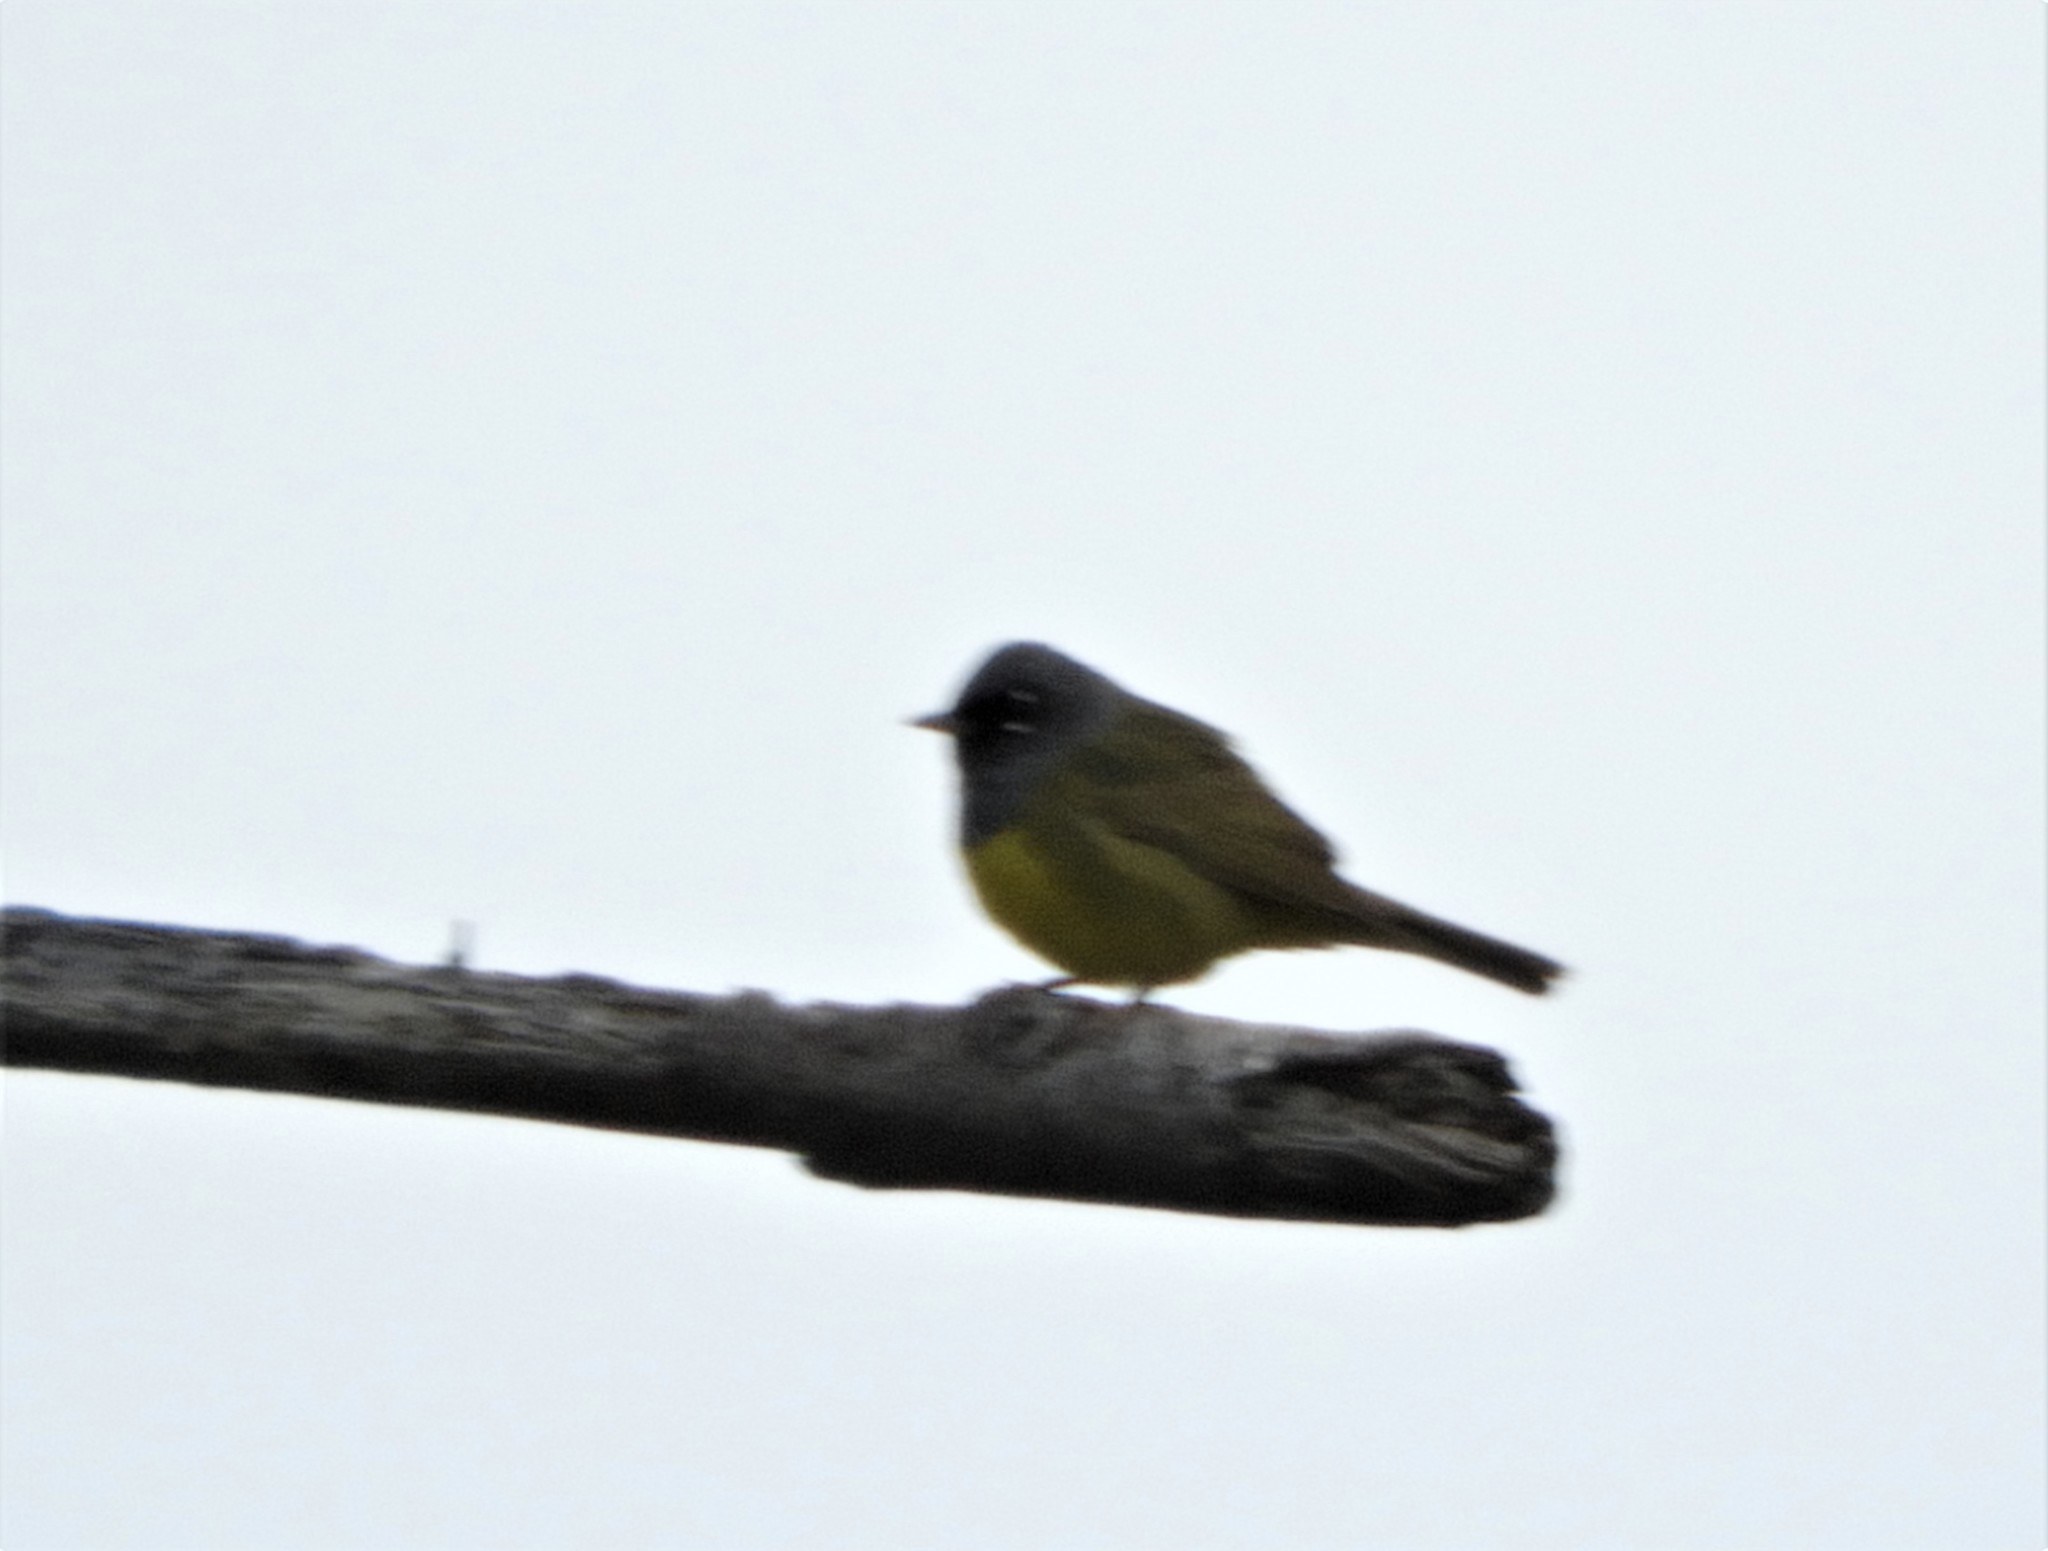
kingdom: Animalia
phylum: Chordata
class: Aves
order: Passeriformes
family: Parulidae
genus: Geothlypis
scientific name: Geothlypis tolmiei
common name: Macgillivray's warbler
